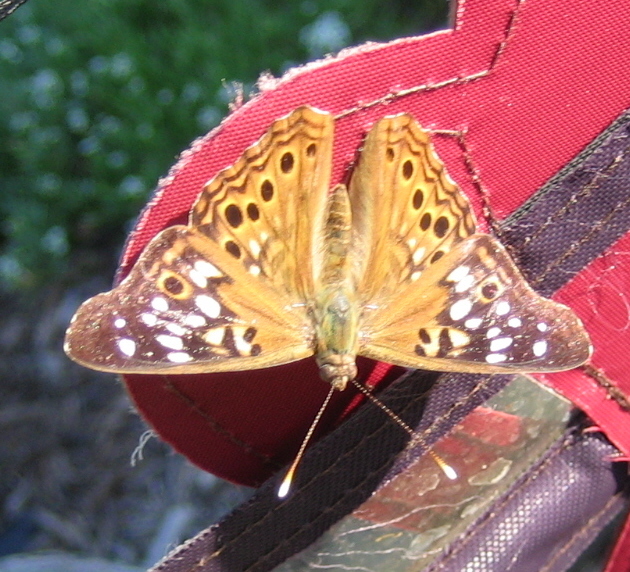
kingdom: Animalia
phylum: Arthropoda
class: Insecta
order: Lepidoptera
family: Nymphalidae
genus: Asterocampa
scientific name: Asterocampa celtis
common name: Hackberry emperor
